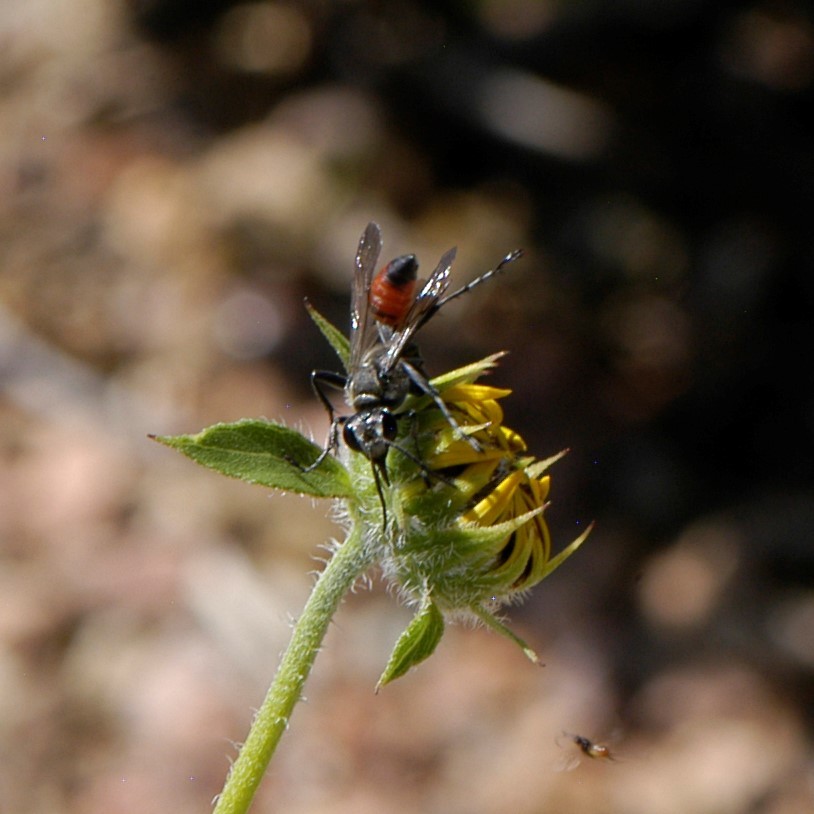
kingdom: Animalia
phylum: Arthropoda
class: Insecta
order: Hymenoptera
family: Sphecidae
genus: Prionyx
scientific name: Prionyx parkeri
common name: Parker's thread-waisted wasp
